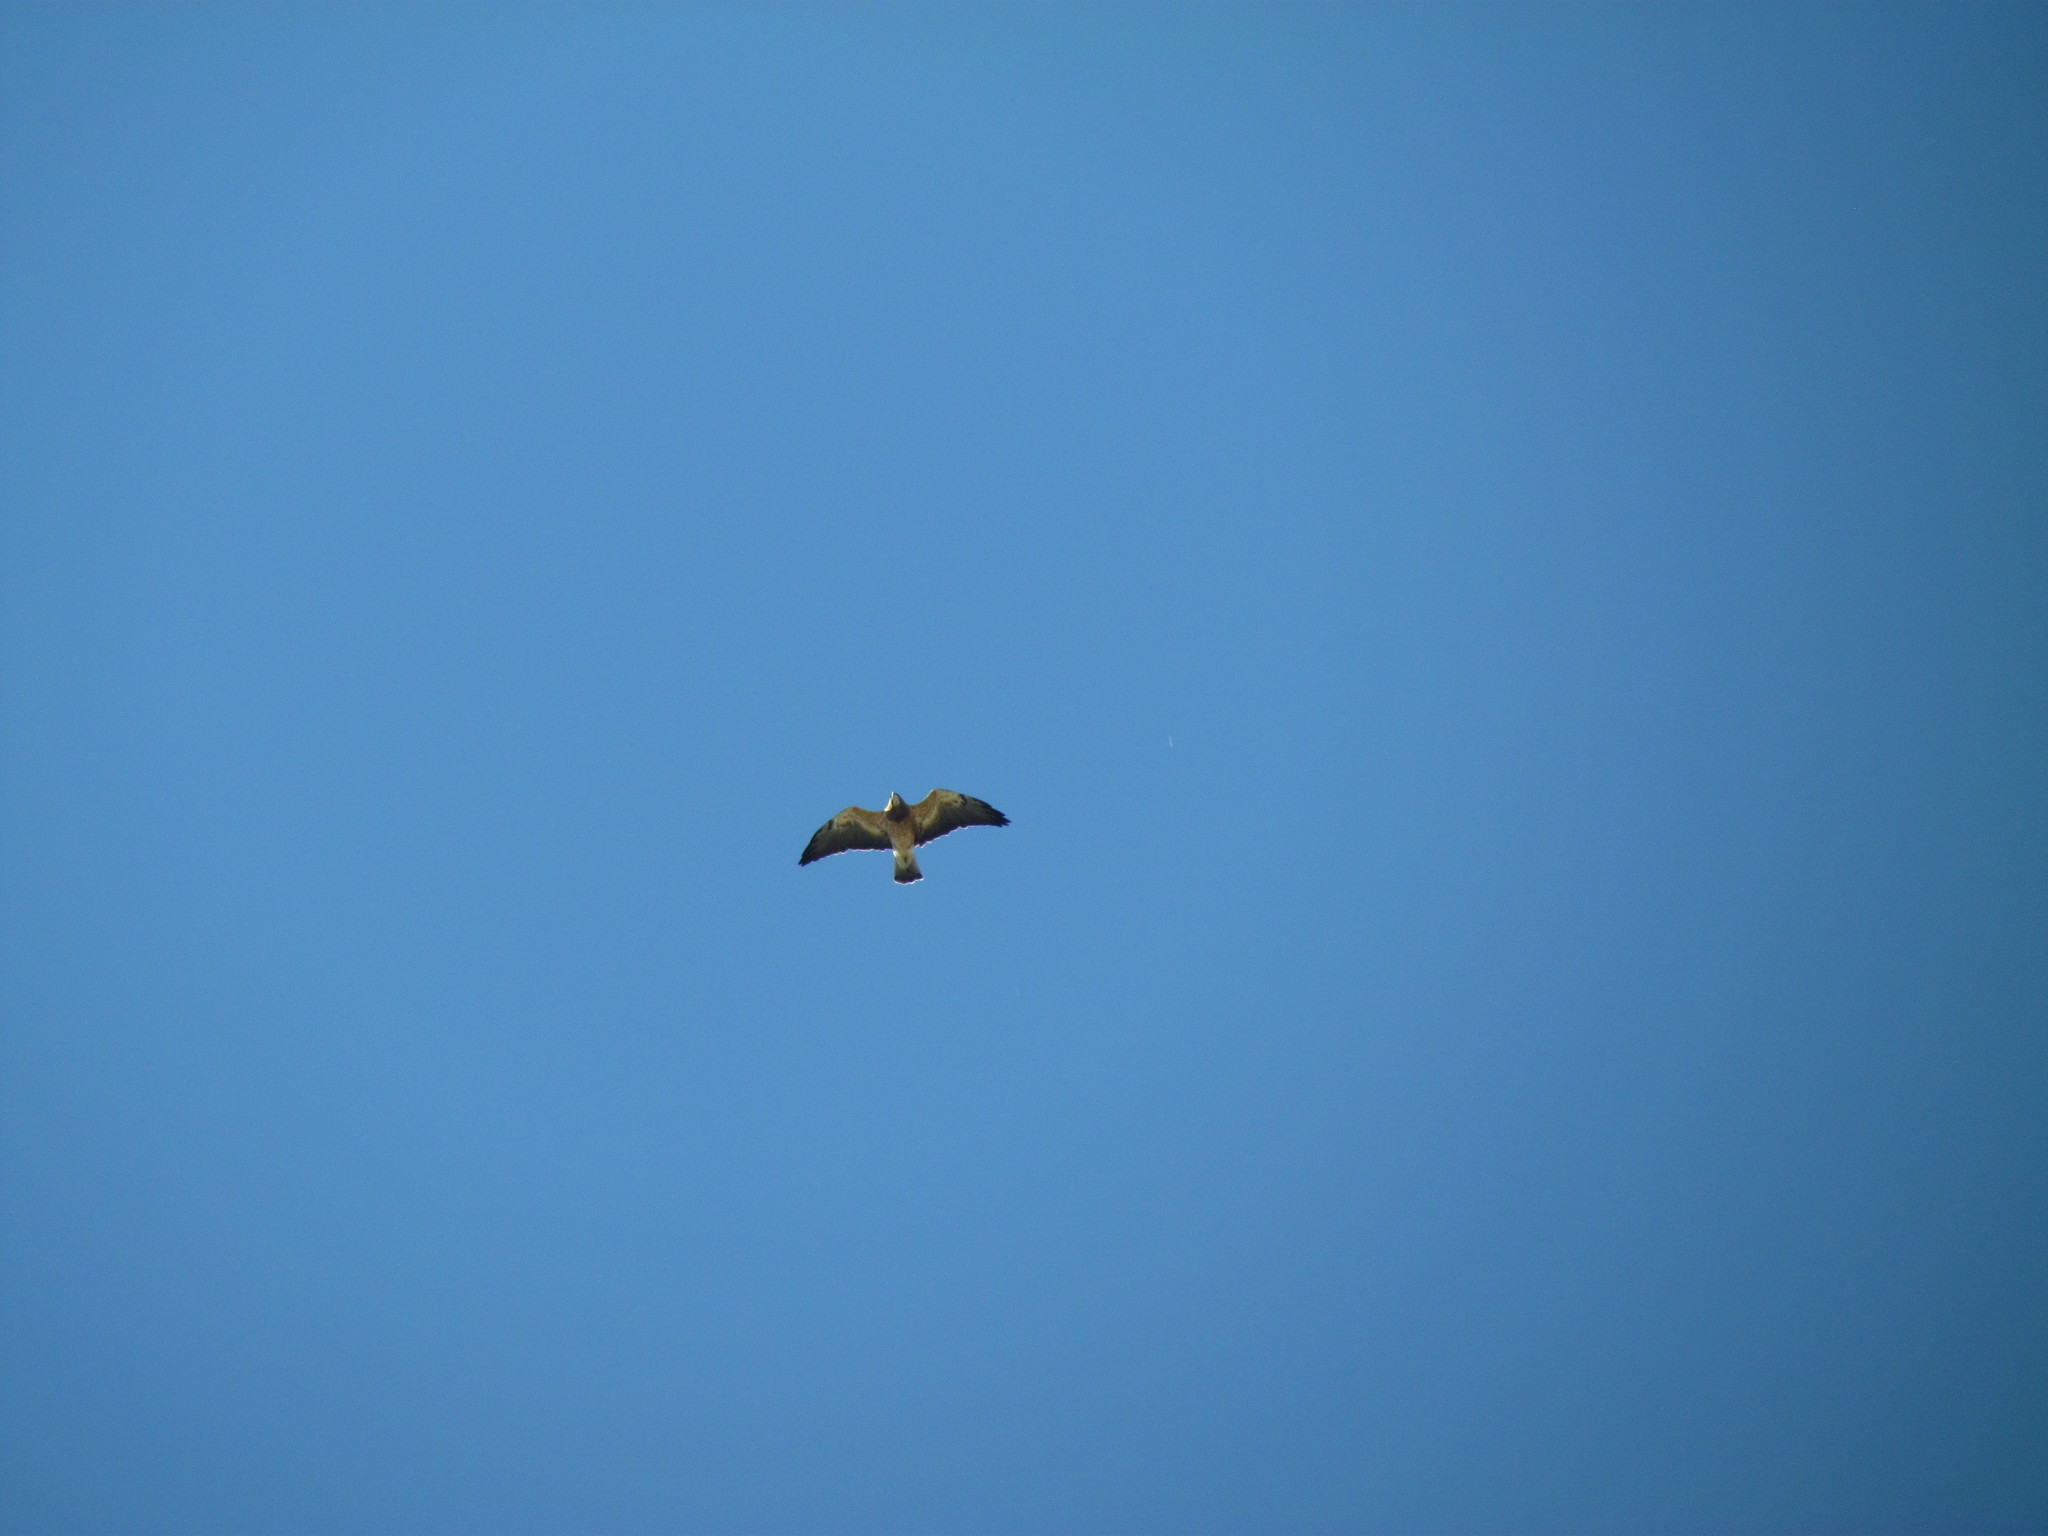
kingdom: Animalia
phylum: Chordata
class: Aves
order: Accipitriformes
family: Accipitridae
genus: Buteo
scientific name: Buteo swainsoni
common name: Swainson's hawk
